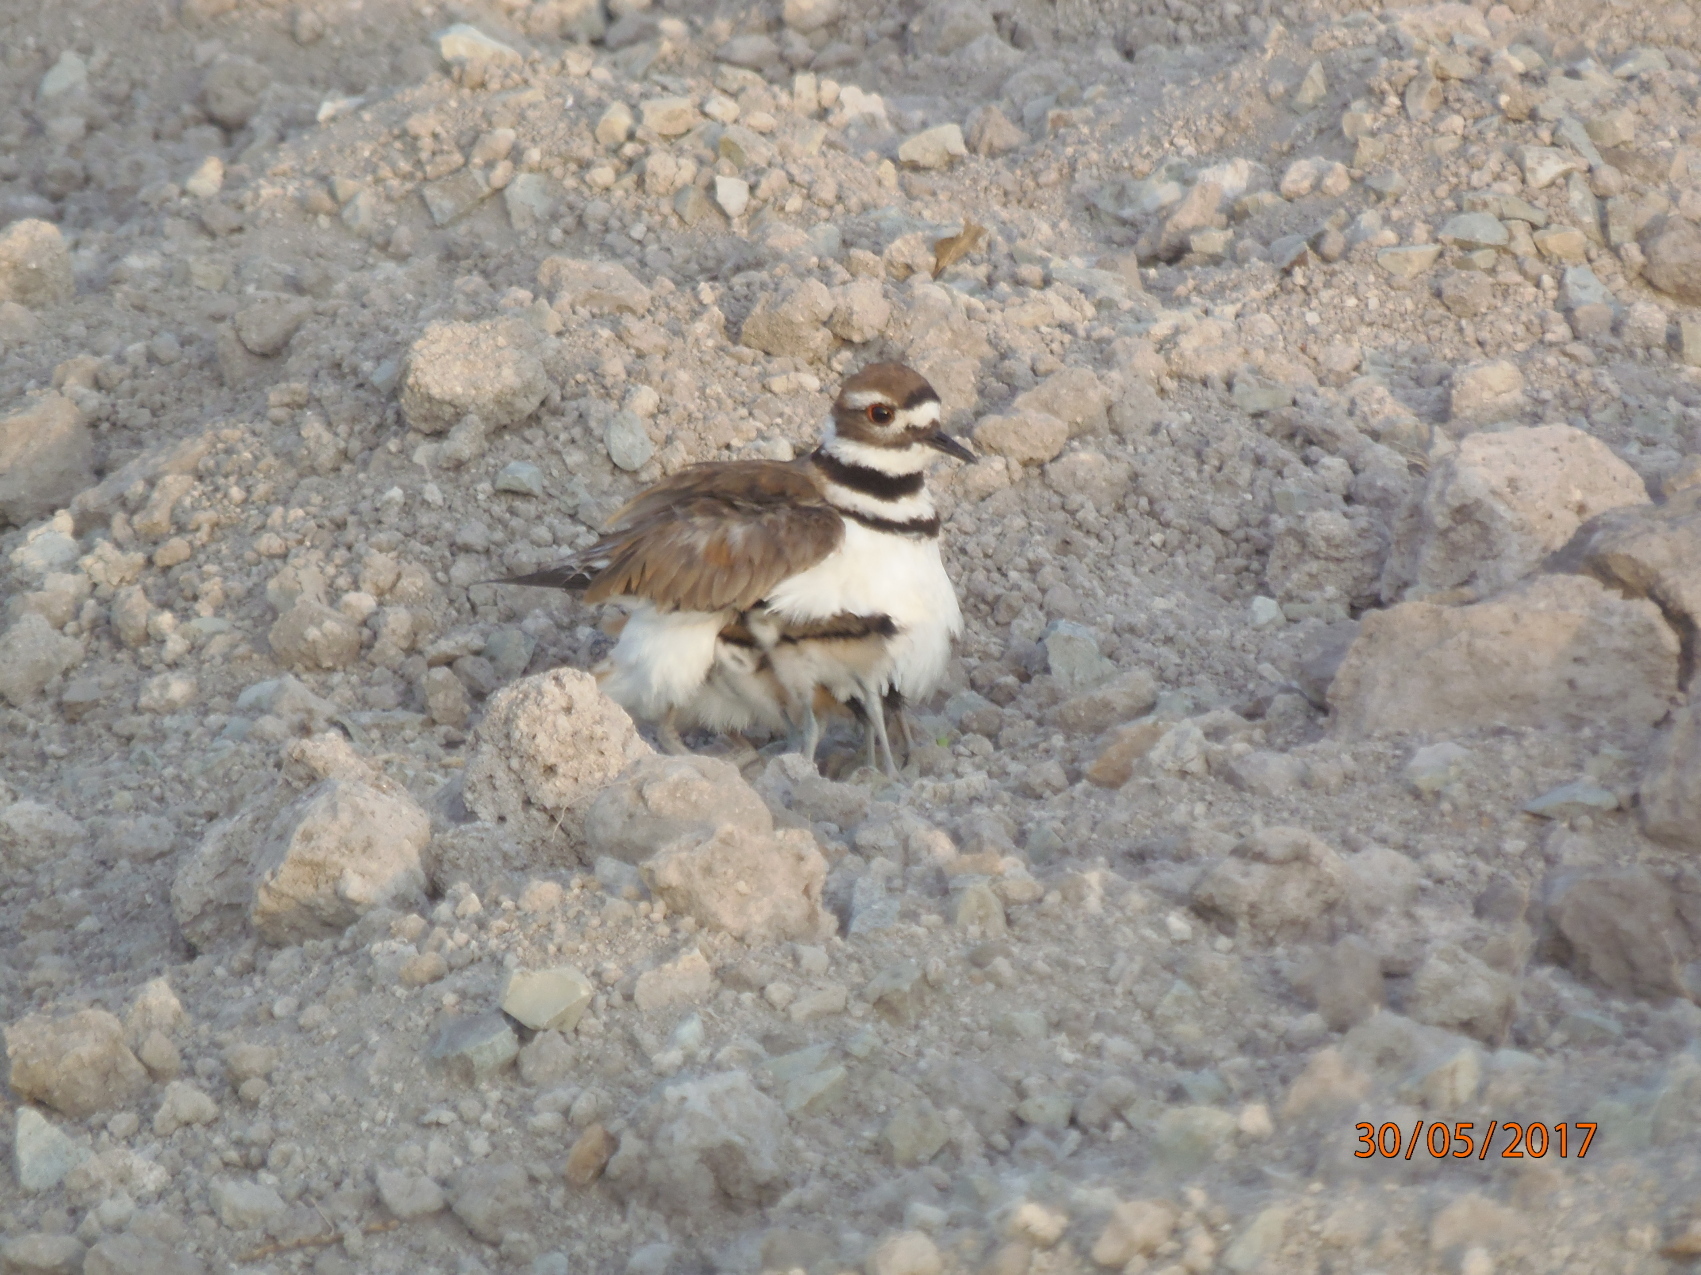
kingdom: Animalia
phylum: Chordata
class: Aves
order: Charadriiformes
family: Charadriidae
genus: Charadrius
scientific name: Charadrius vociferus
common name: Killdeer
